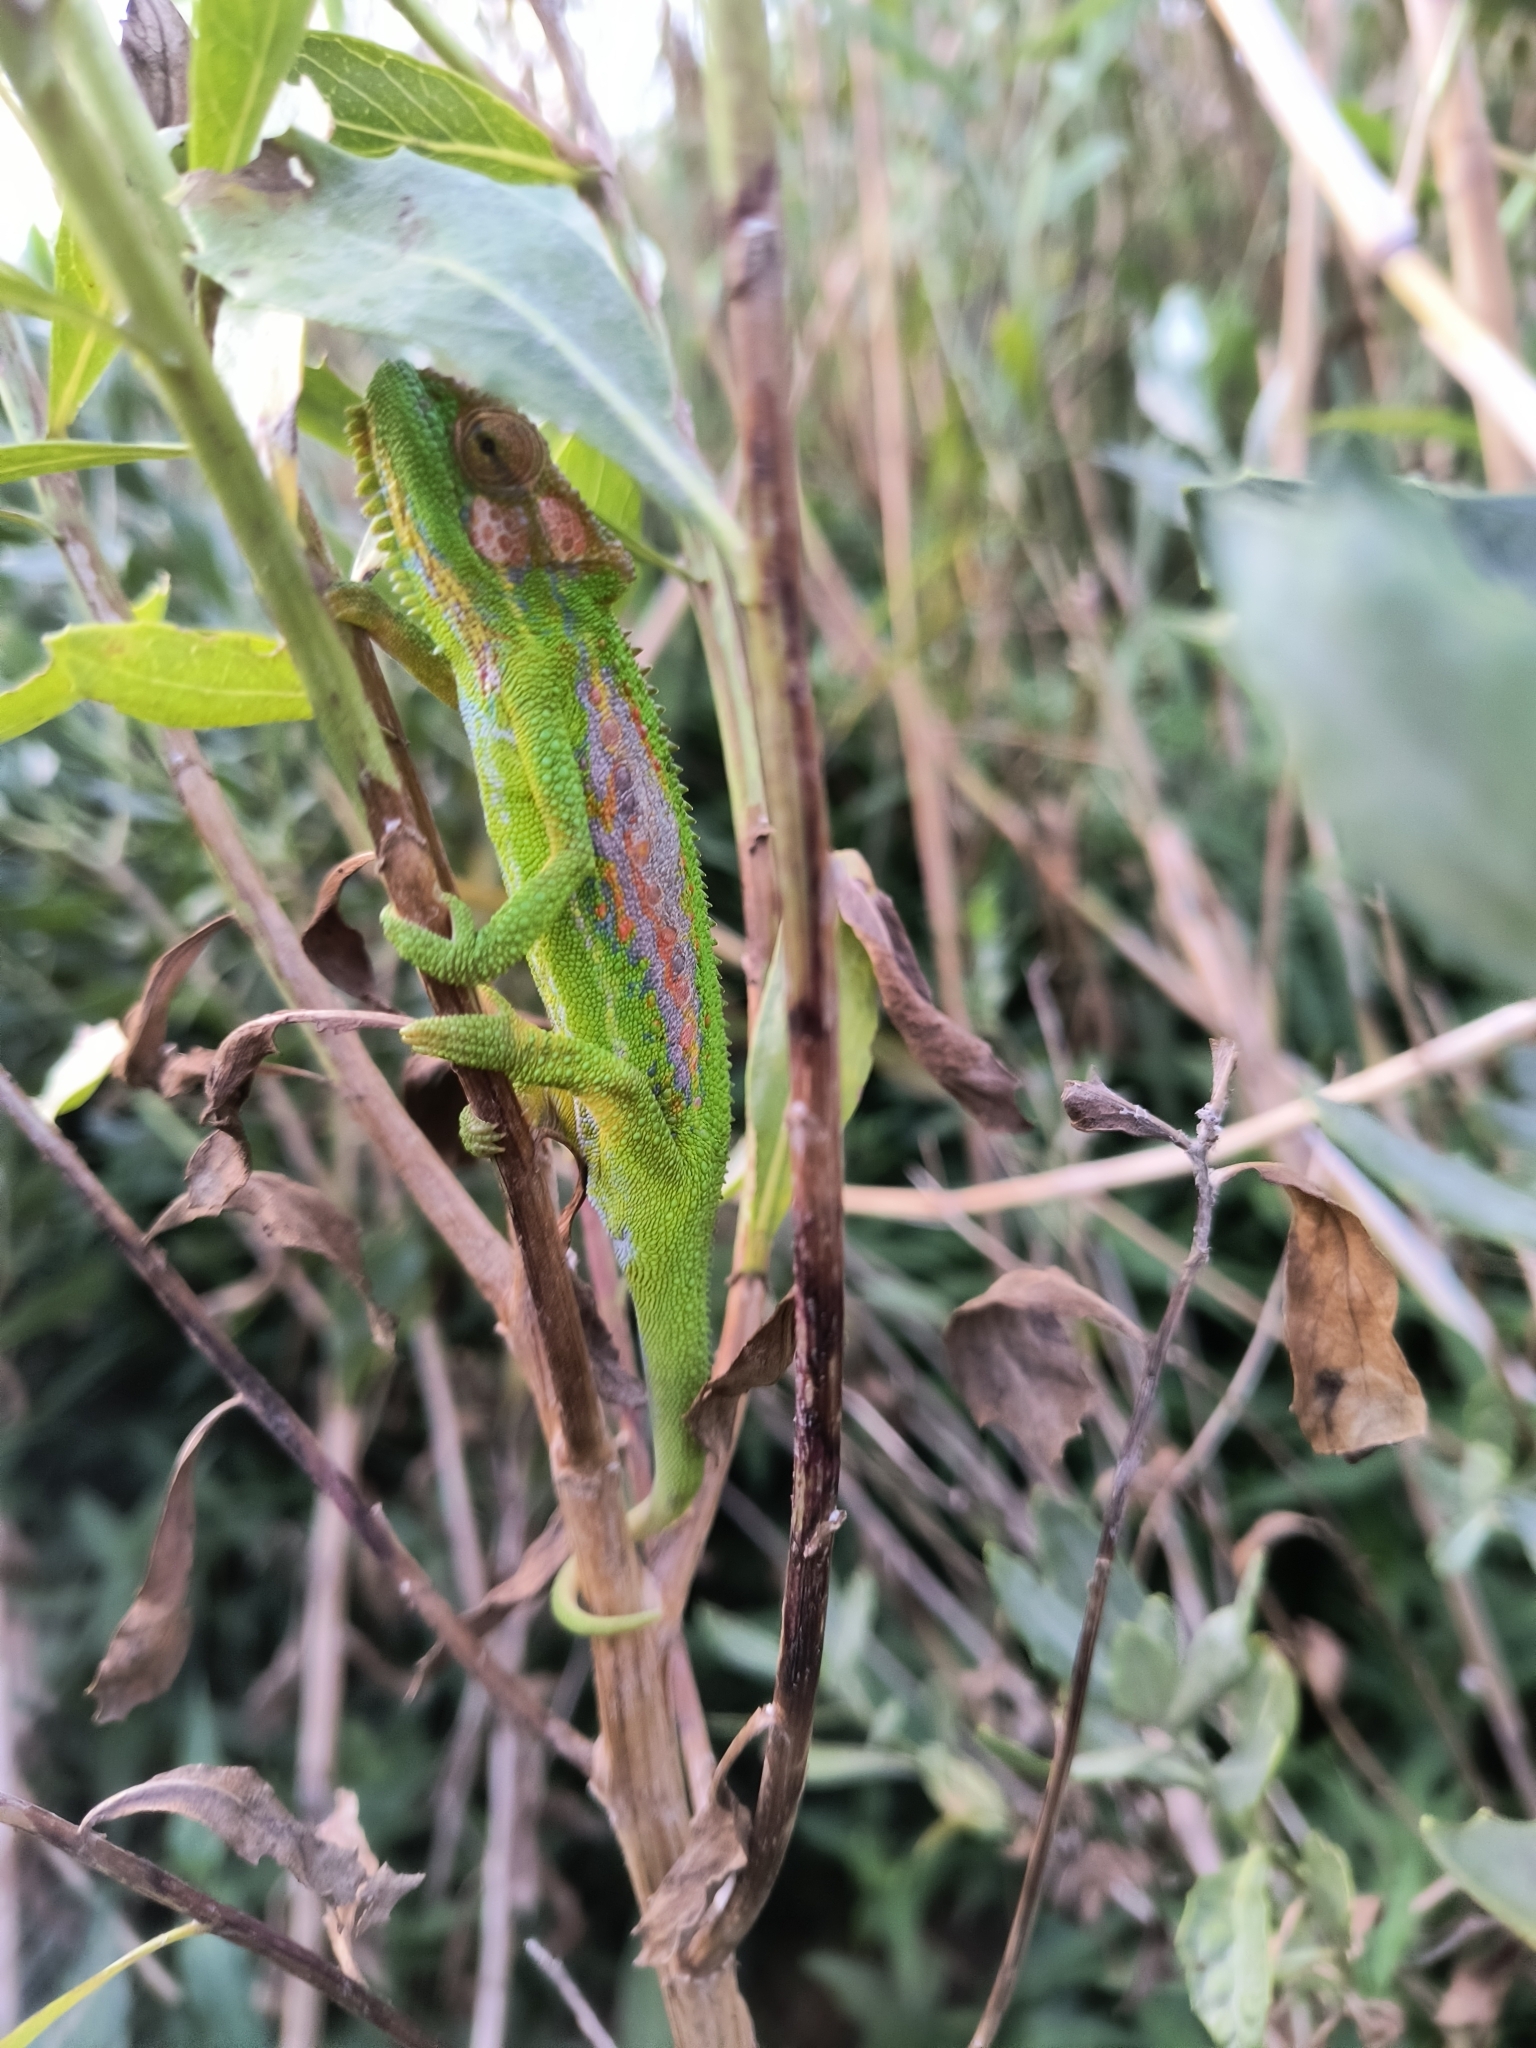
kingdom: Animalia
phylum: Chordata
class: Squamata
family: Chamaeleonidae
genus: Bradypodion
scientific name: Bradypodion pumilum
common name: Cape dwarf chameleon
